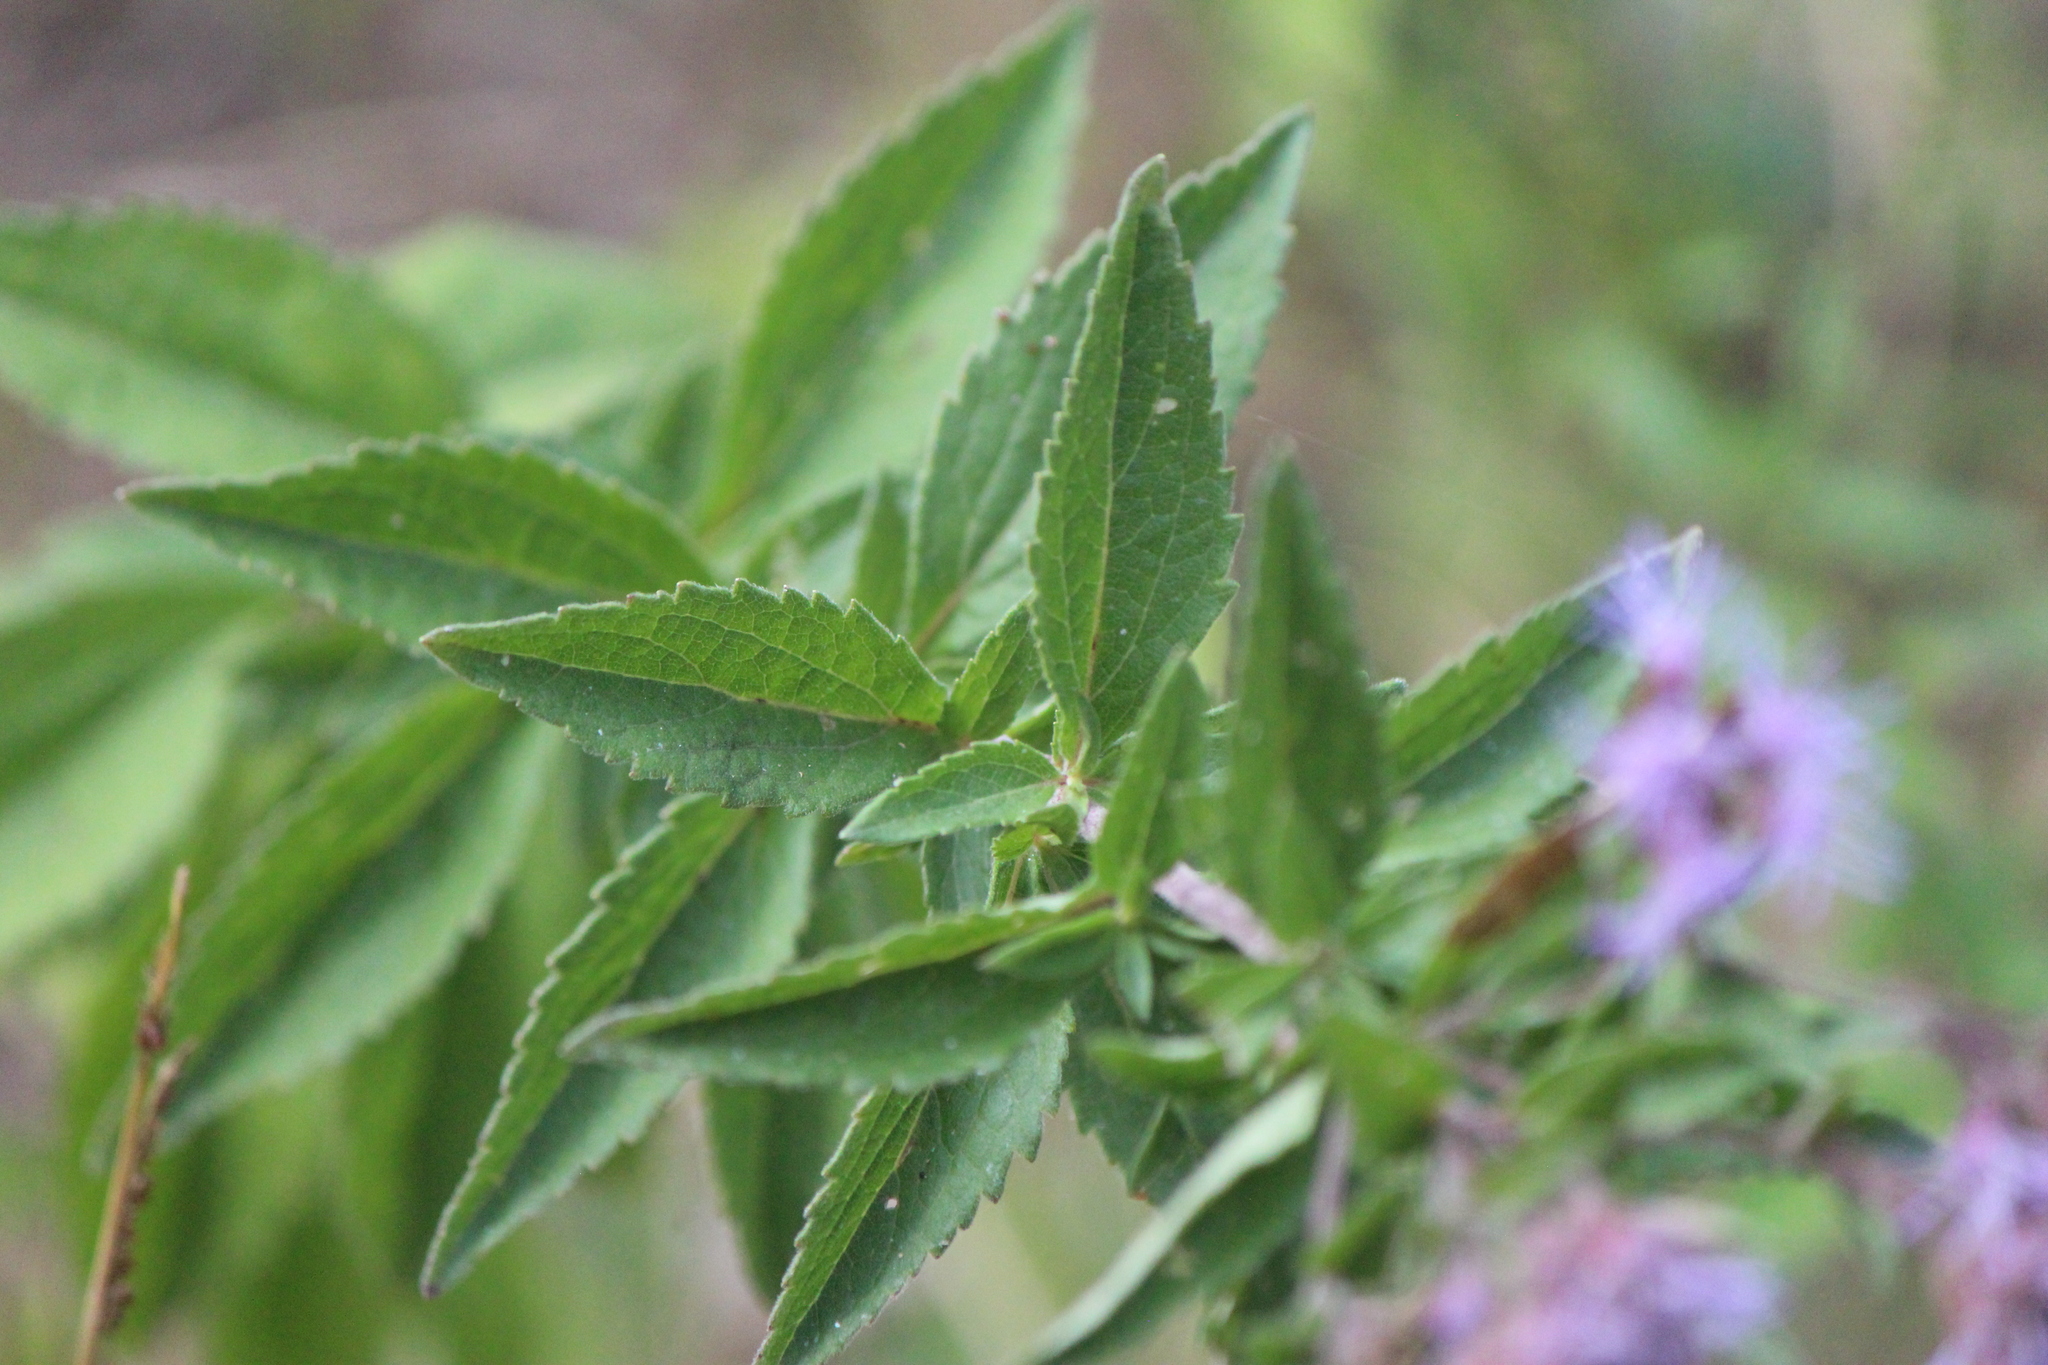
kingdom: Plantae
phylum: Tracheophyta
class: Magnoliopsida
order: Asterales
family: Asteraceae
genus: Chromolaena
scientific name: Chromolaena pulchella
